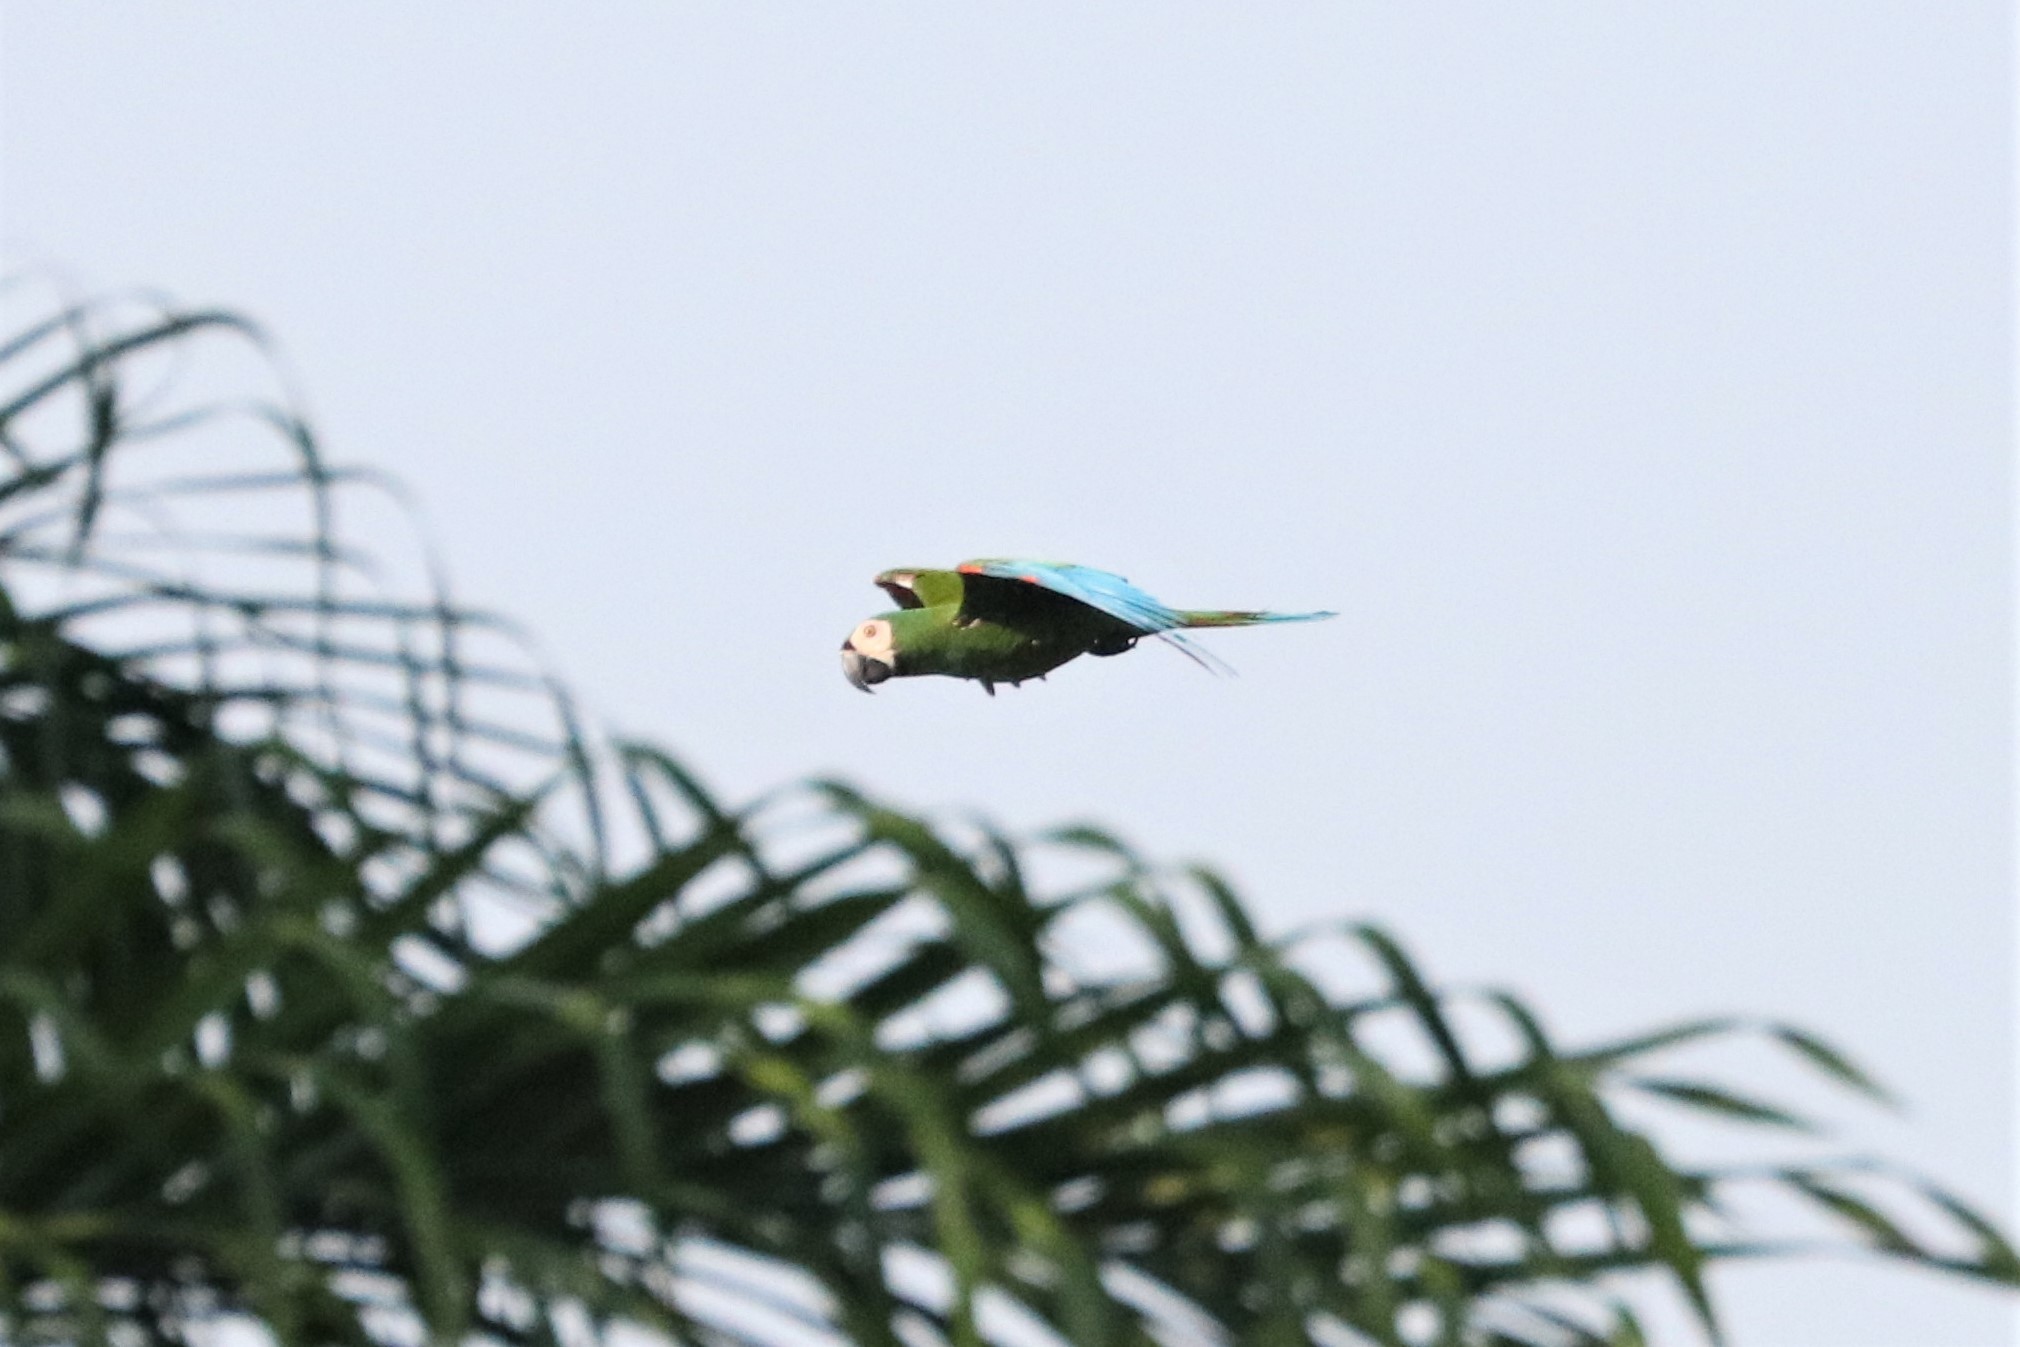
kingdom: Animalia
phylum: Chordata
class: Aves
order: Psittaciformes
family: Psittacidae
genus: Ara
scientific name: Ara severus
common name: Chestnut-fronted macaw
